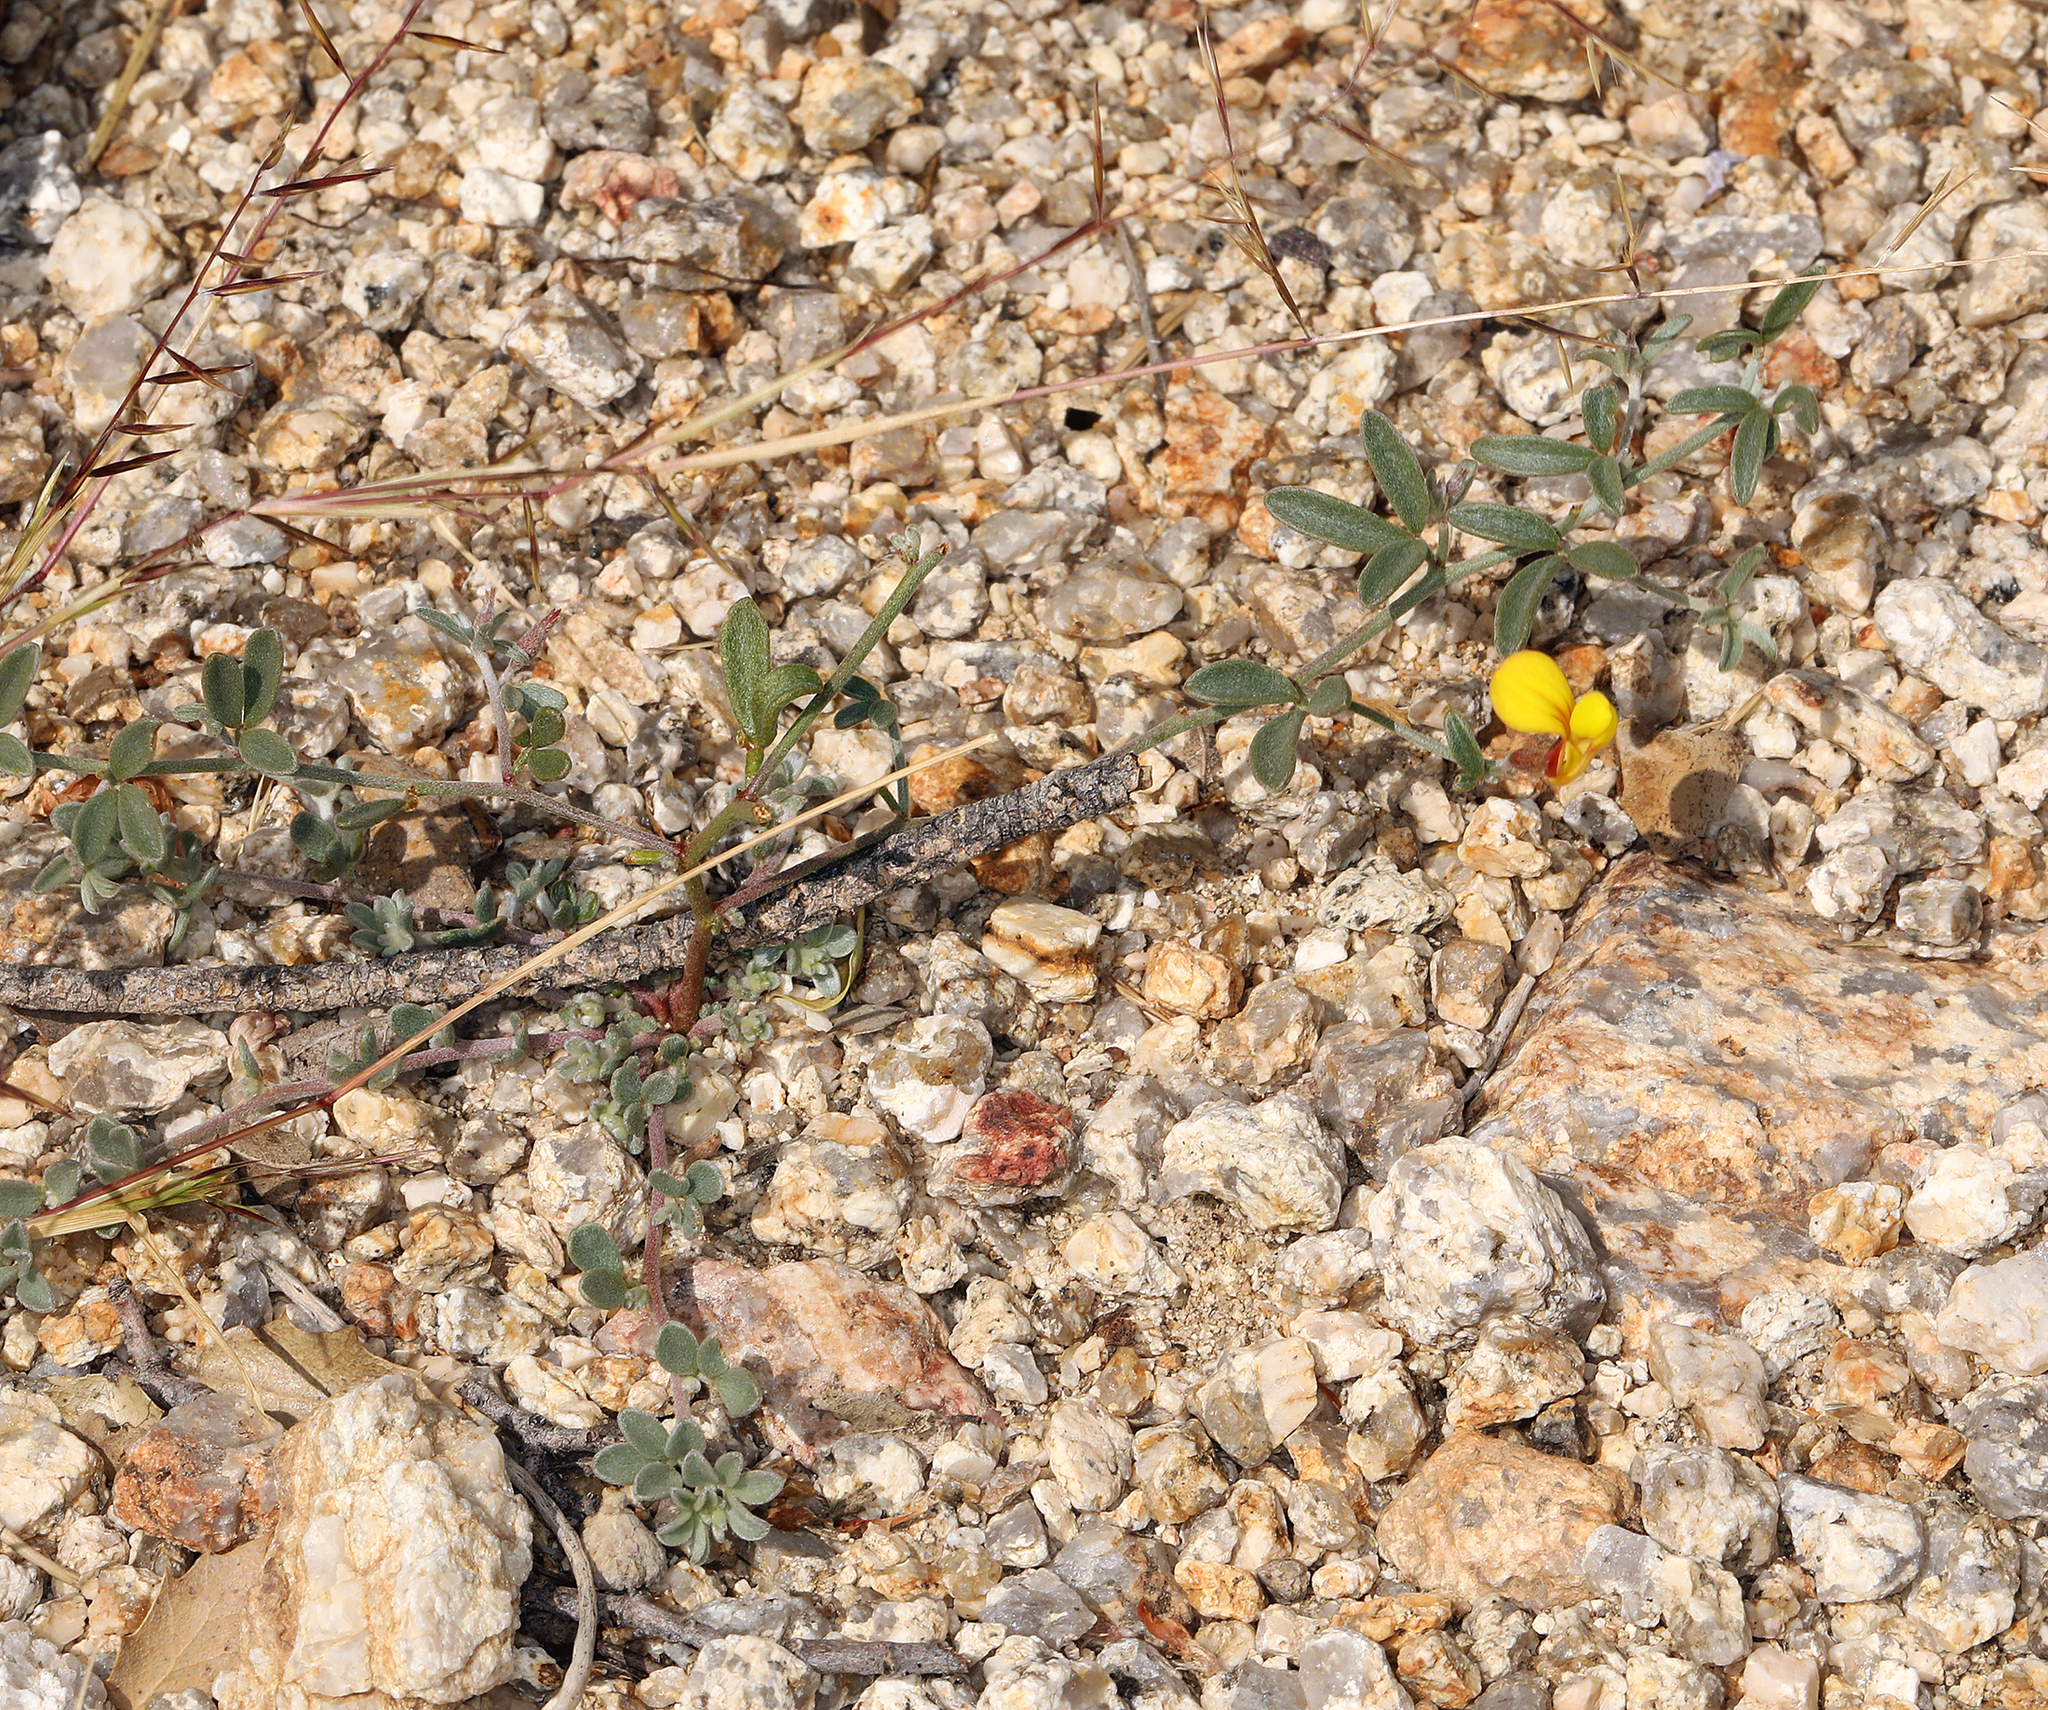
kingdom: Plantae
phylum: Tracheophyta
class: Magnoliopsida
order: Fabales
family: Fabaceae
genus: Acmispon
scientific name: Acmispon argyraeus
